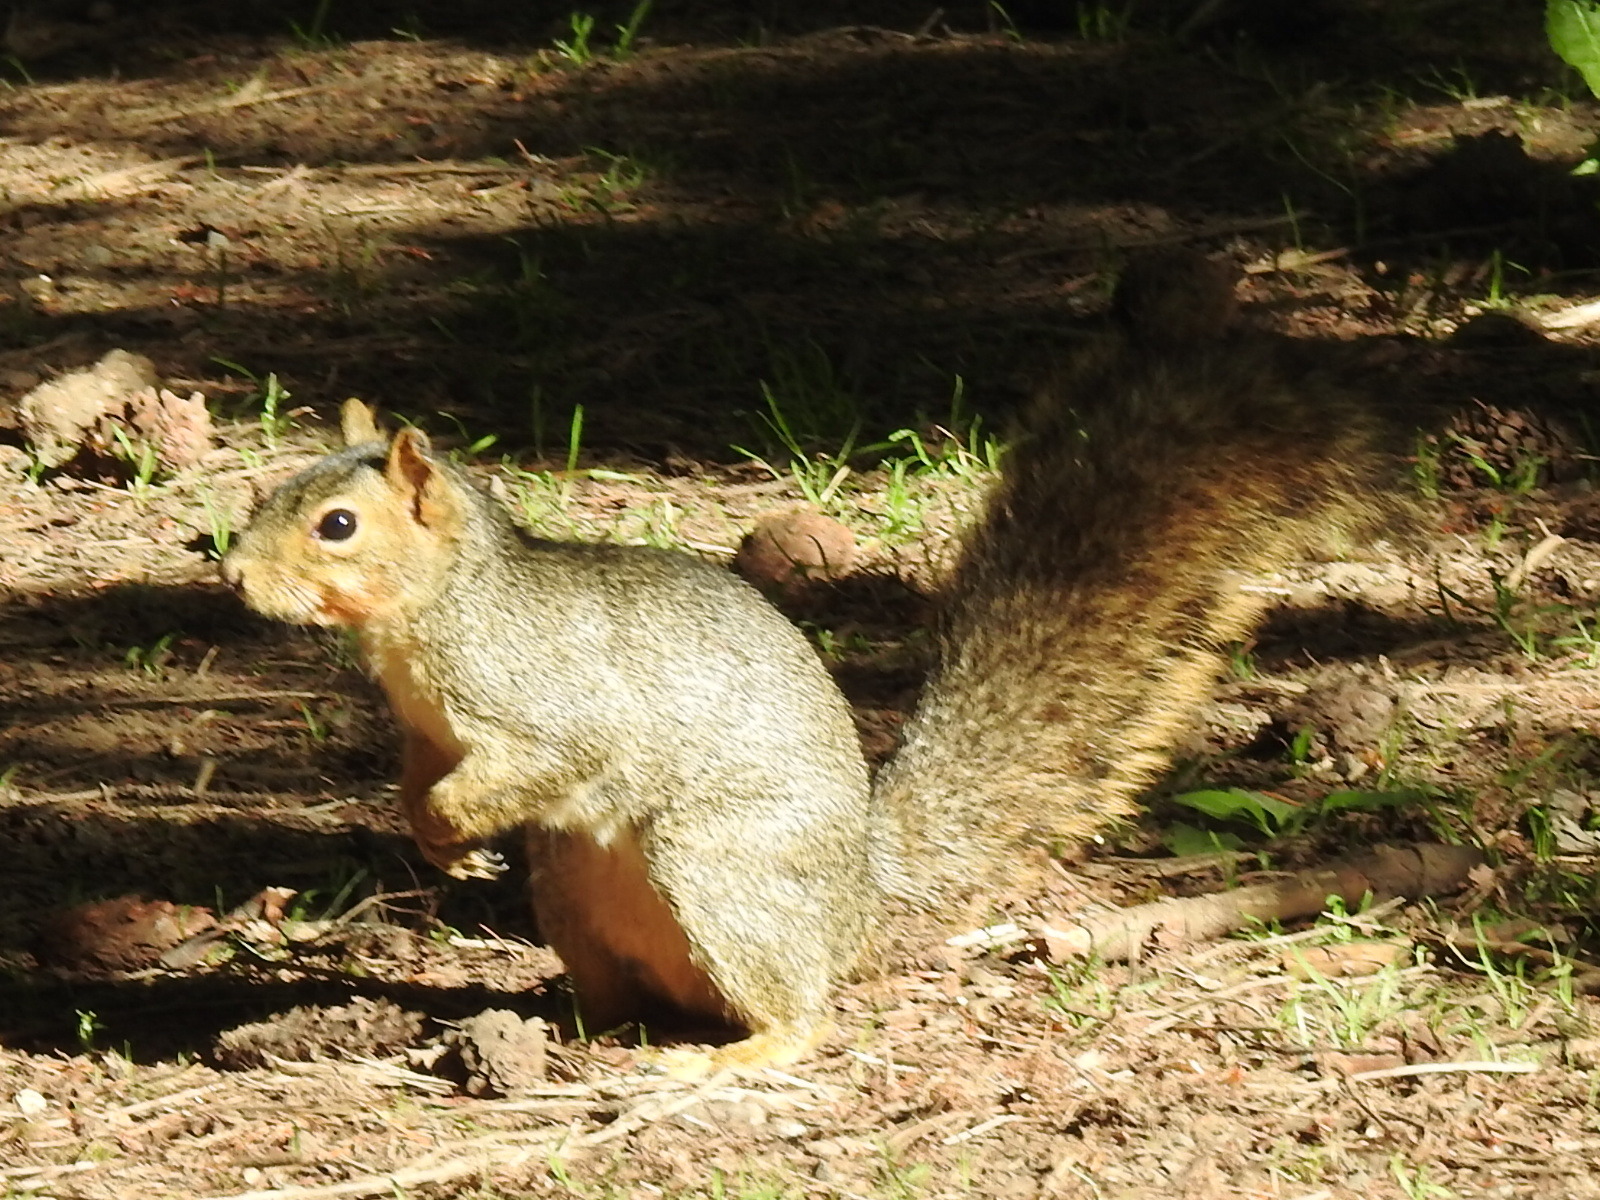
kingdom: Animalia
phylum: Chordata
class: Mammalia
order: Rodentia
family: Sciuridae
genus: Sciurus
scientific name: Sciurus niger
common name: Fox squirrel
